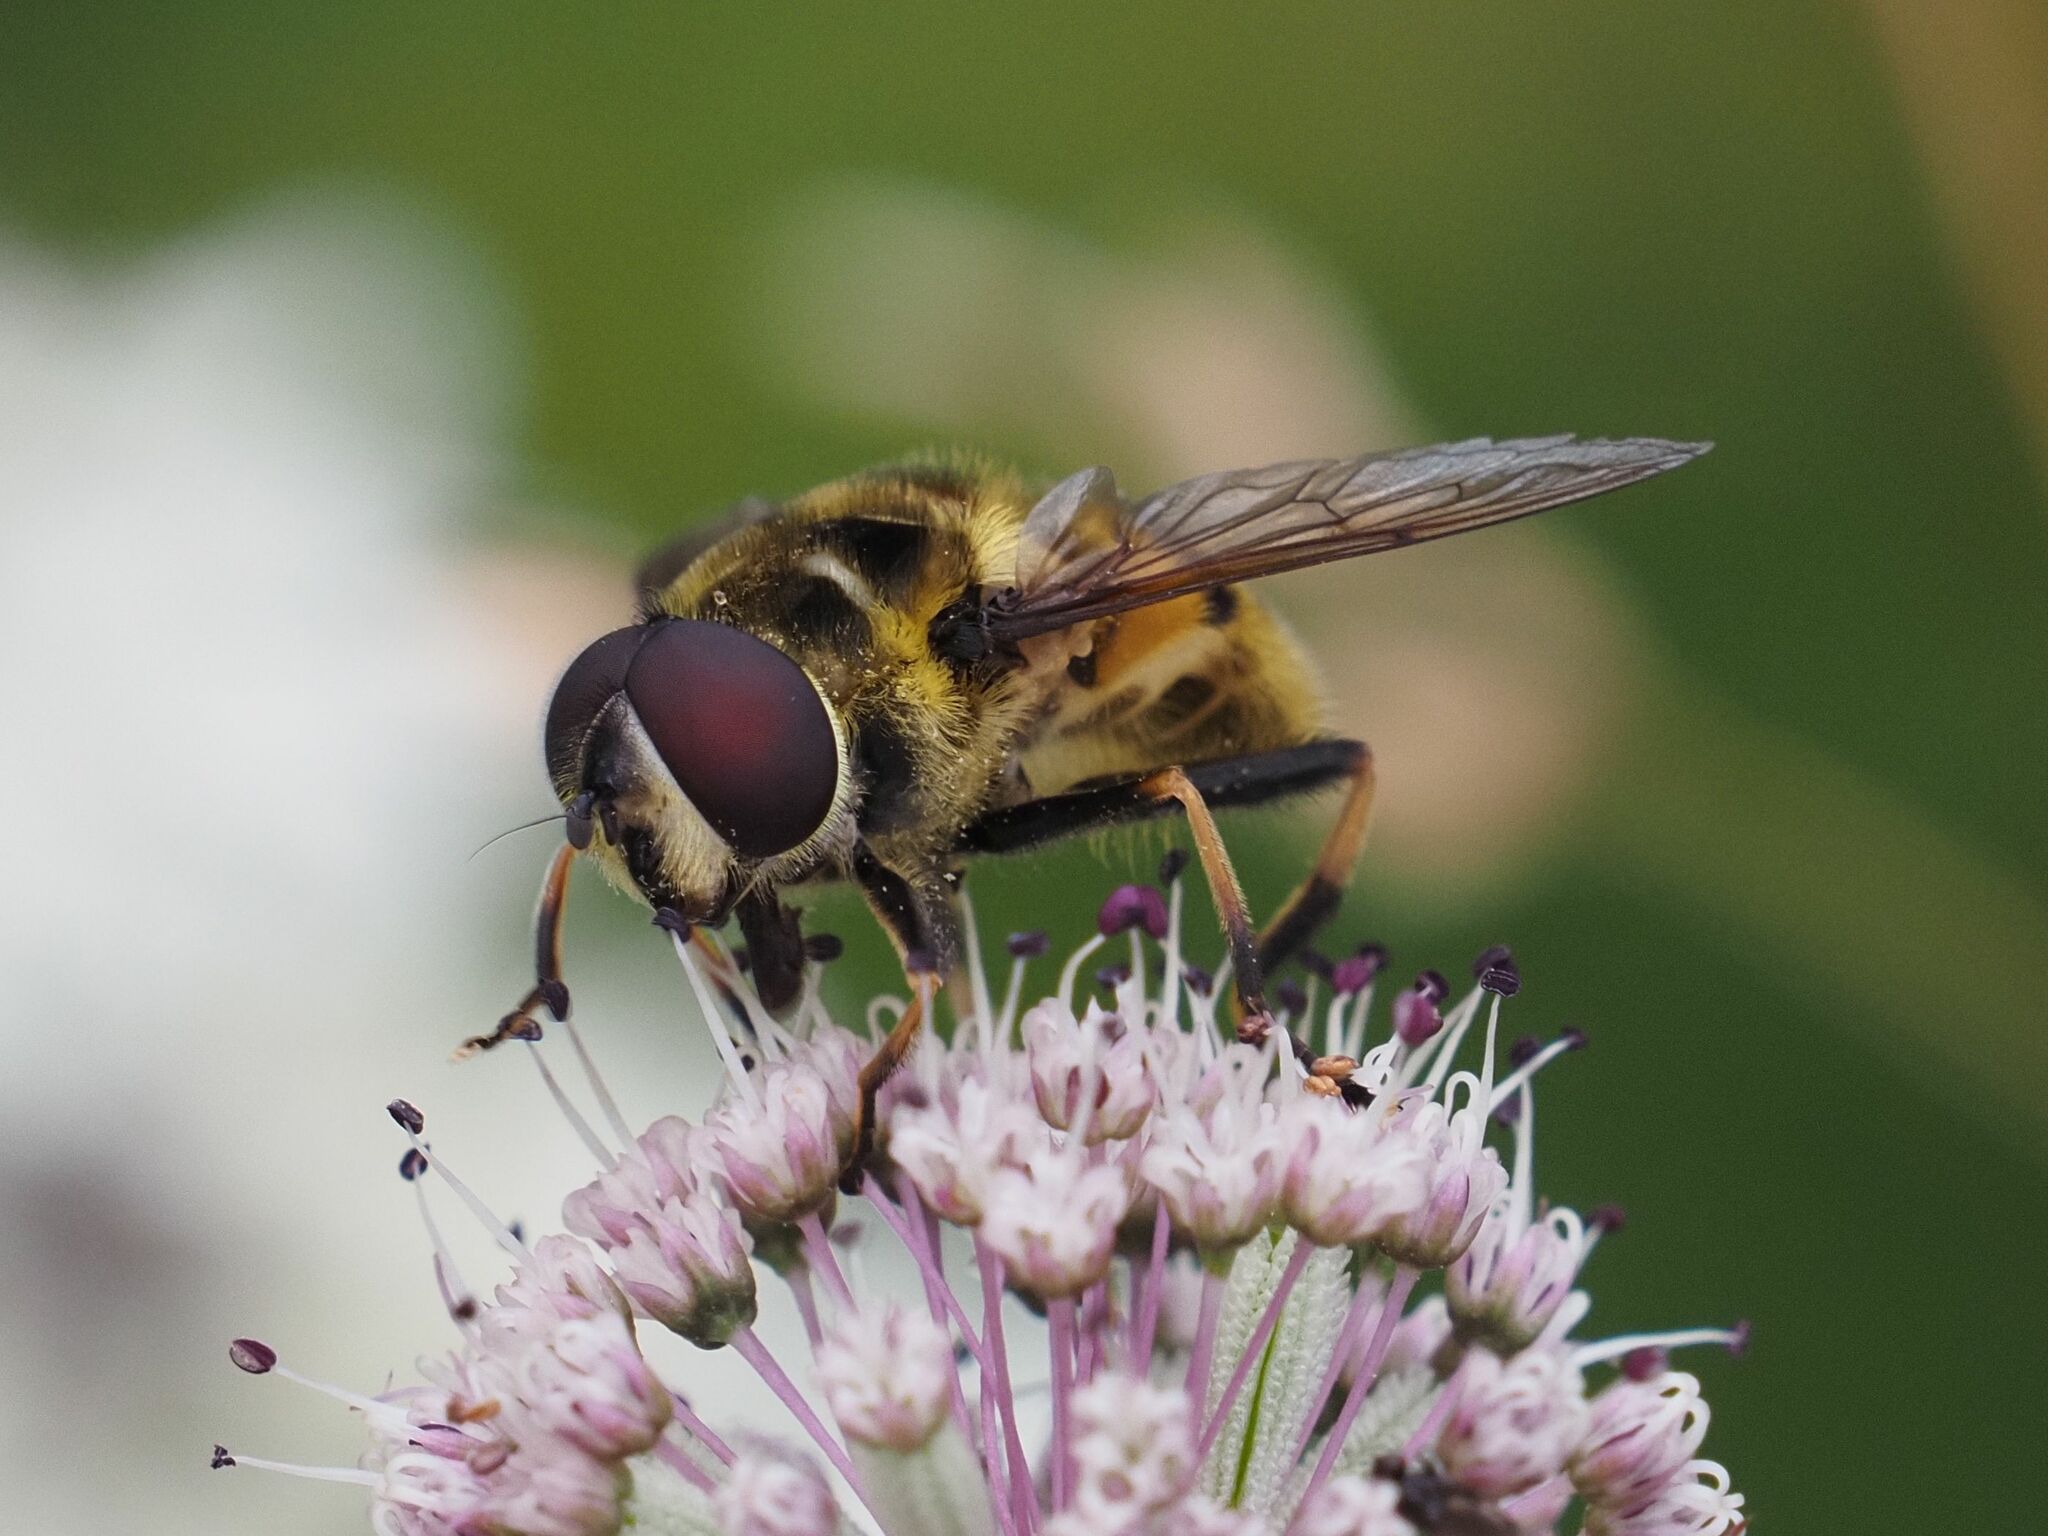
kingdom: Animalia
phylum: Arthropoda
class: Insecta
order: Diptera
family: Syrphidae
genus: Myathropa
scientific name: Myathropa florea
